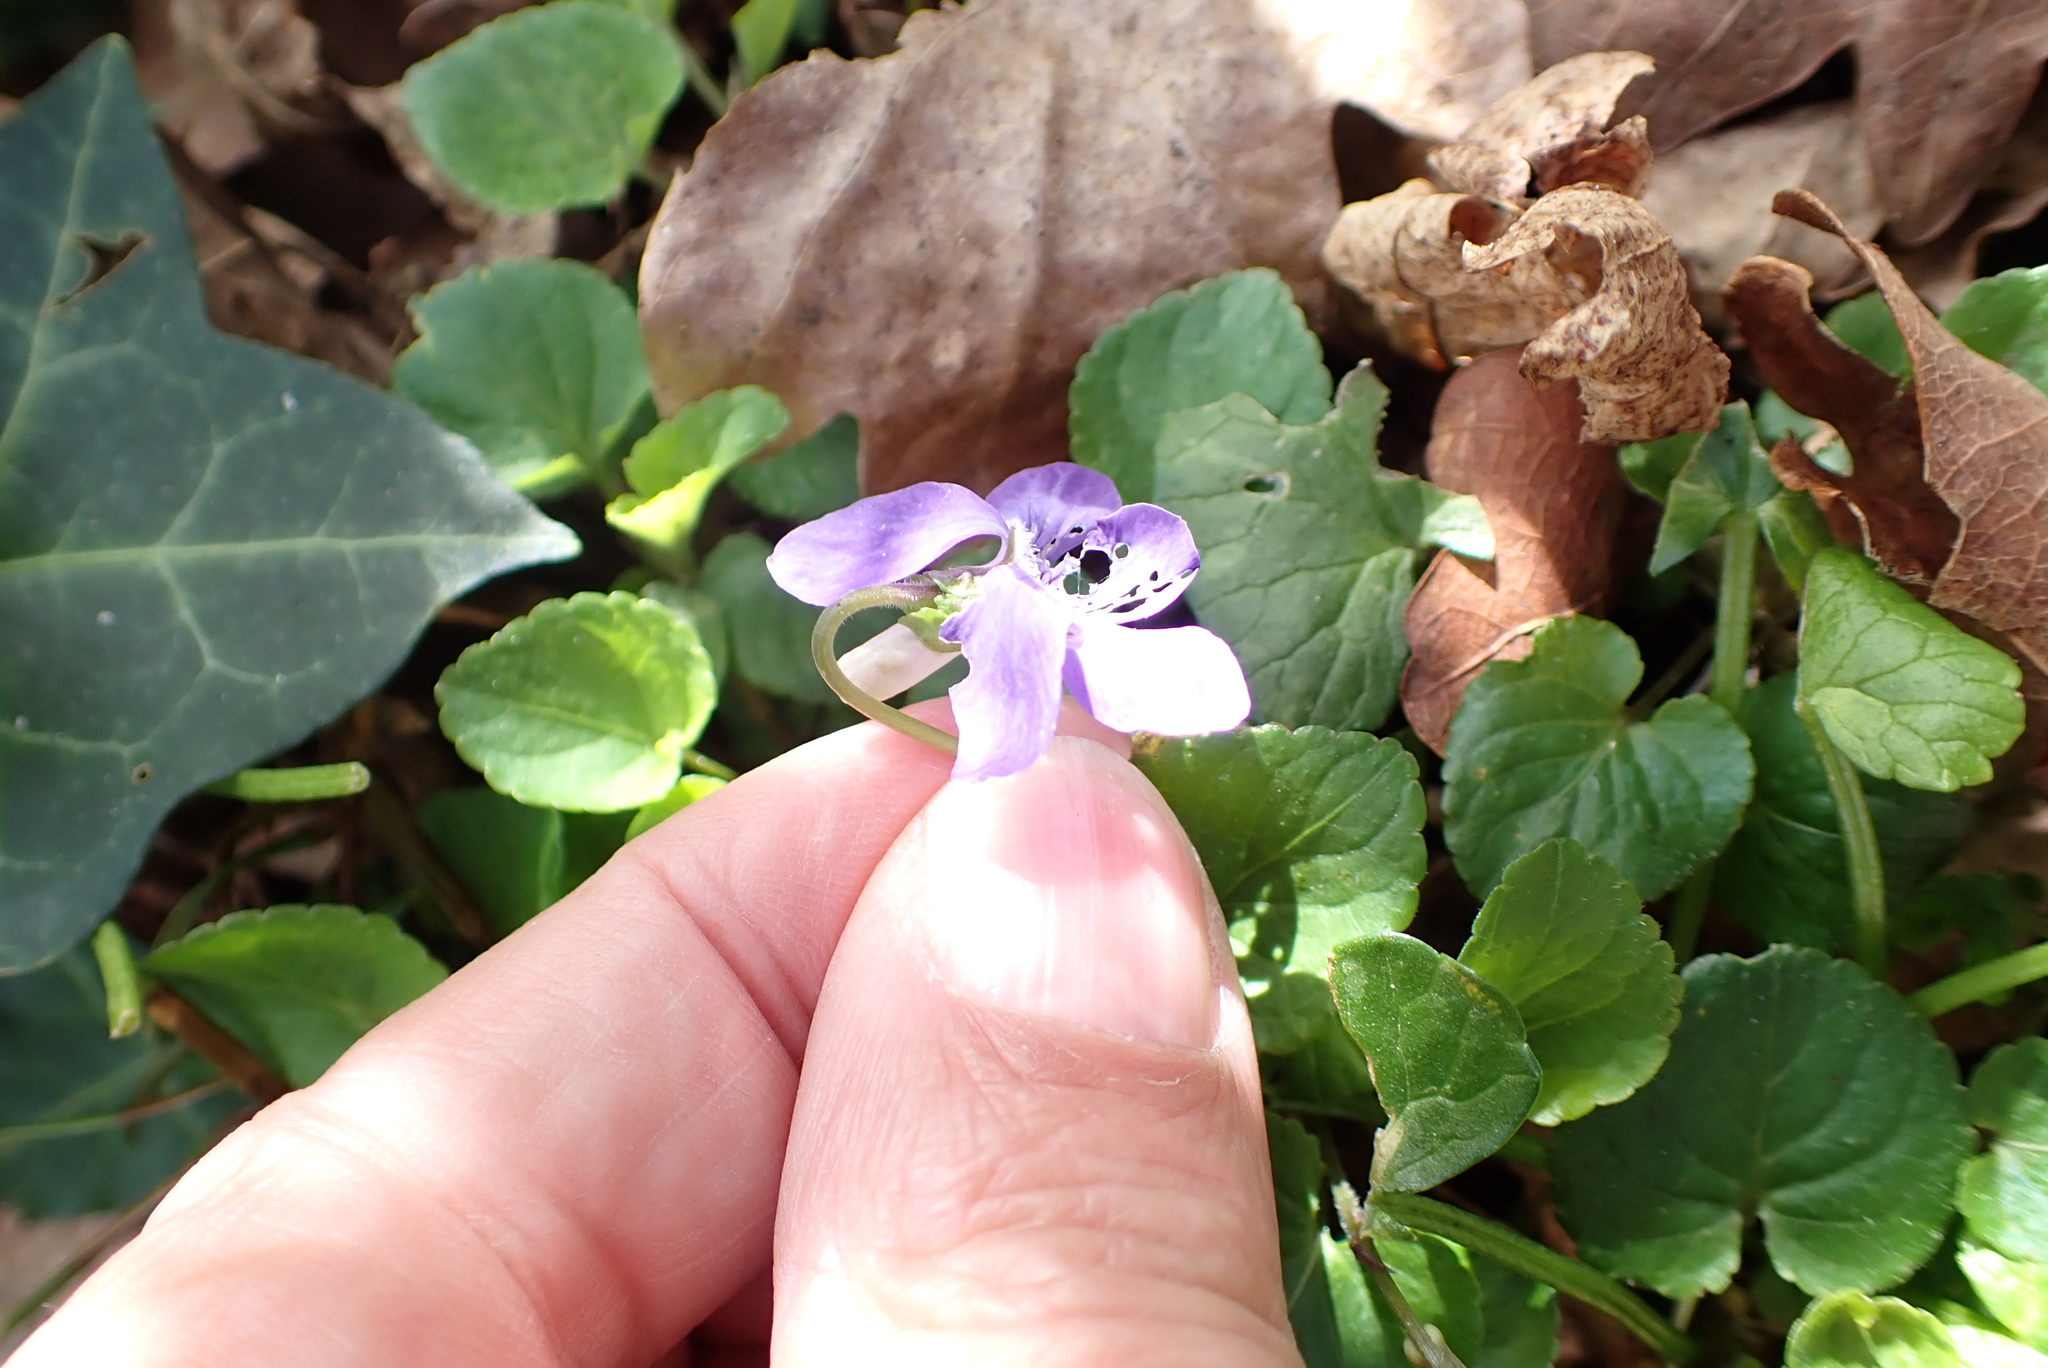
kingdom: Plantae
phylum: Tracheophyta
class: Magnoliopsida
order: Malpighiales
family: Violaceae
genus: Viola
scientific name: Viola riviniana
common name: Common dog-violet
